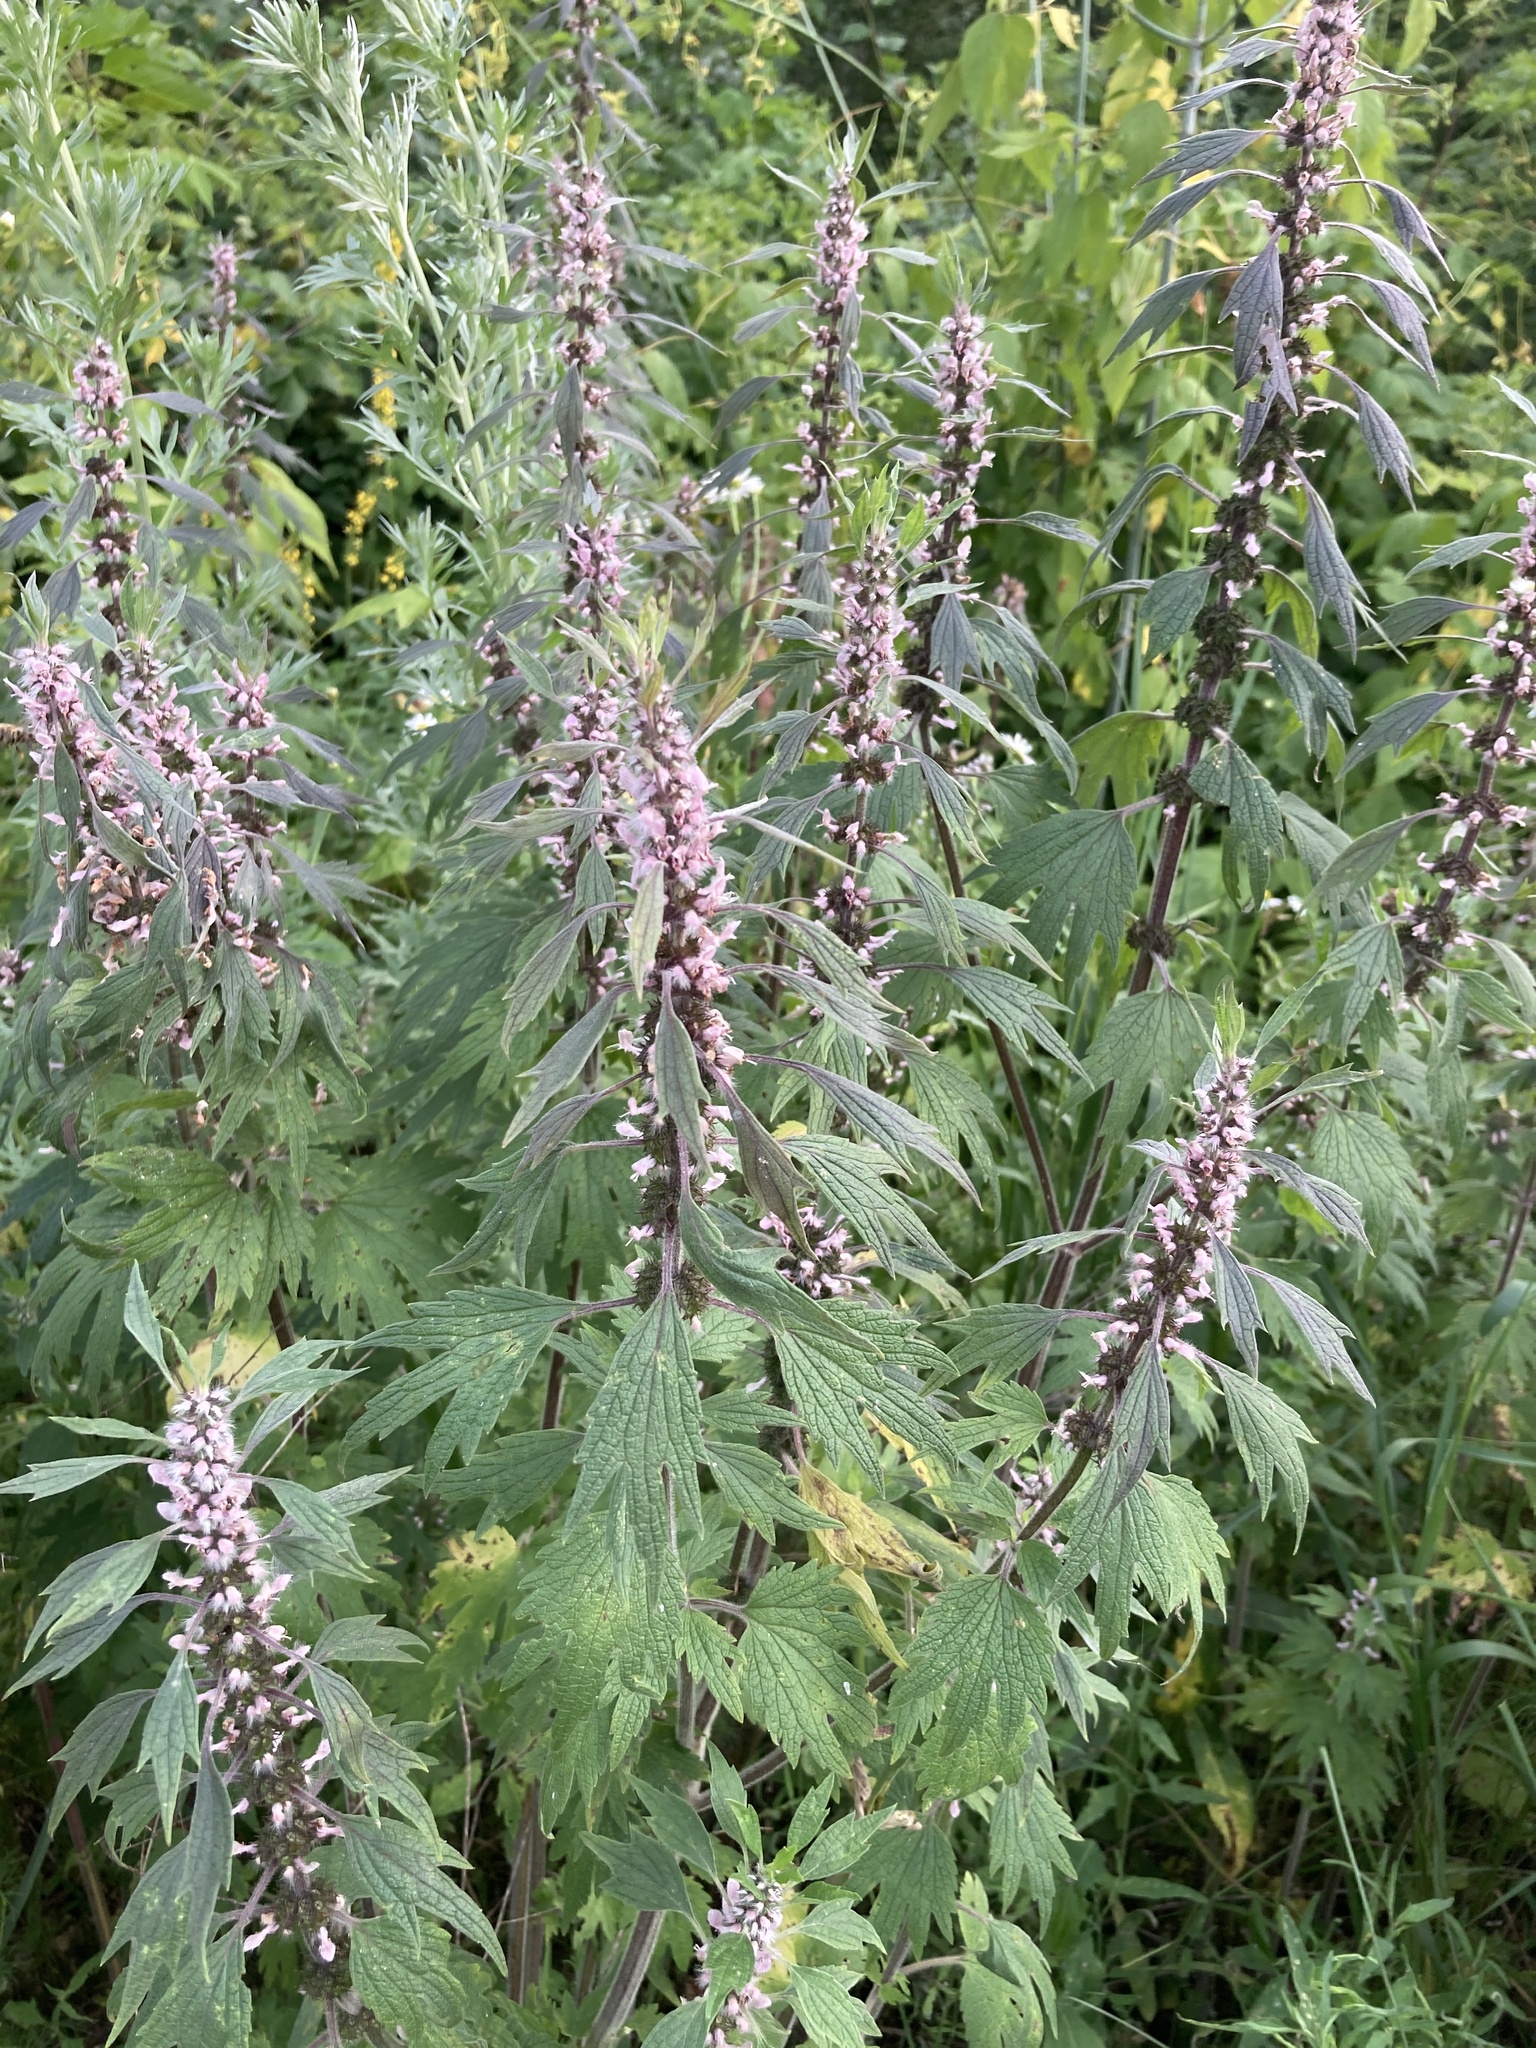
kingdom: Plantae
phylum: Tracheophyta
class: Magnoliopsida
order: Lamiales
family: Lamiaceae
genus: Leonurus
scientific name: Leonurus quinquelobatus
